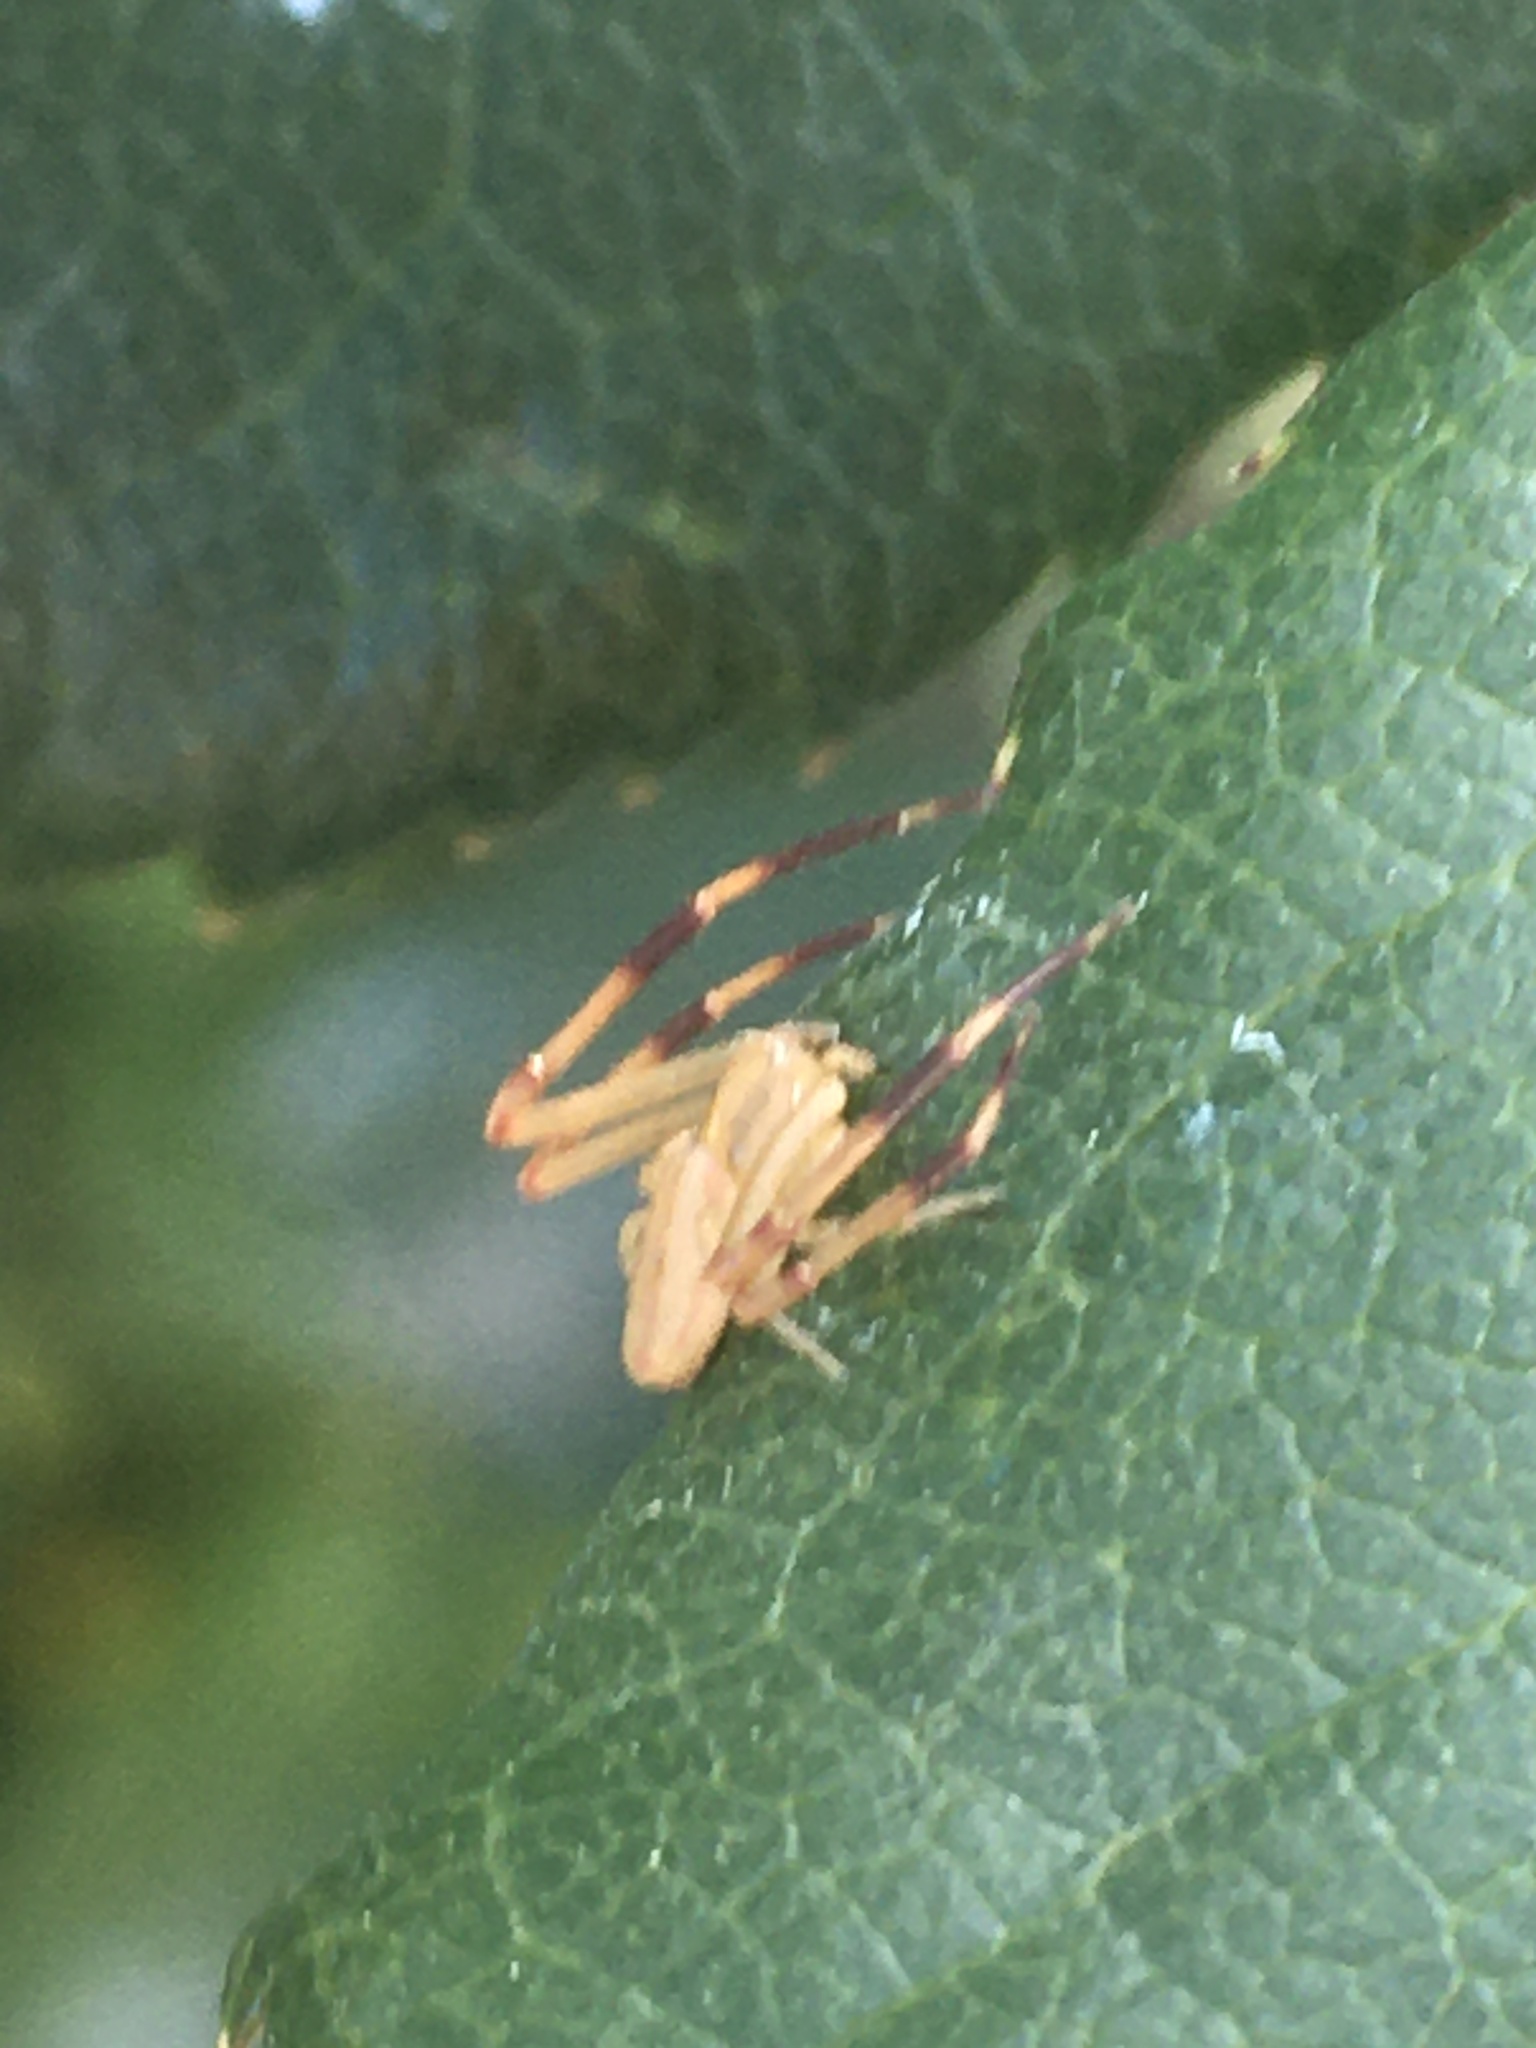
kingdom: Animalia
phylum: Arthropoda
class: Arachnida
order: Araneae
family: Thomisidae
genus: Runcinia
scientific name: Runcinia grammica
